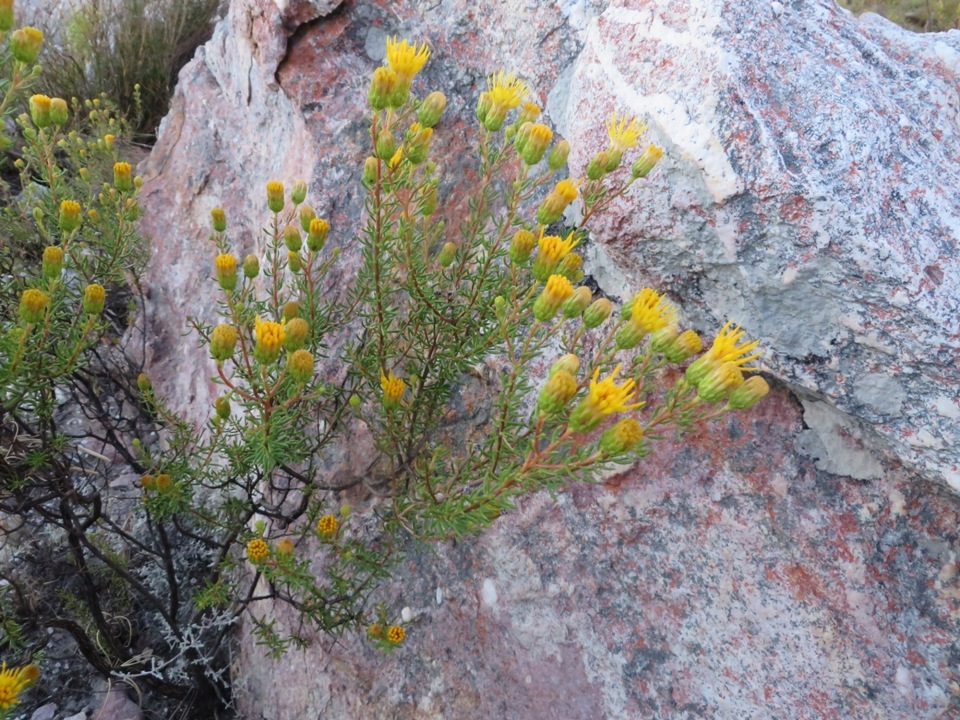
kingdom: Plantae
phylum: Tracheophyta
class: Magnoliopsida
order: Asterales
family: Asteraceae
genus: Pteronia
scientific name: Pteronia camphorata
